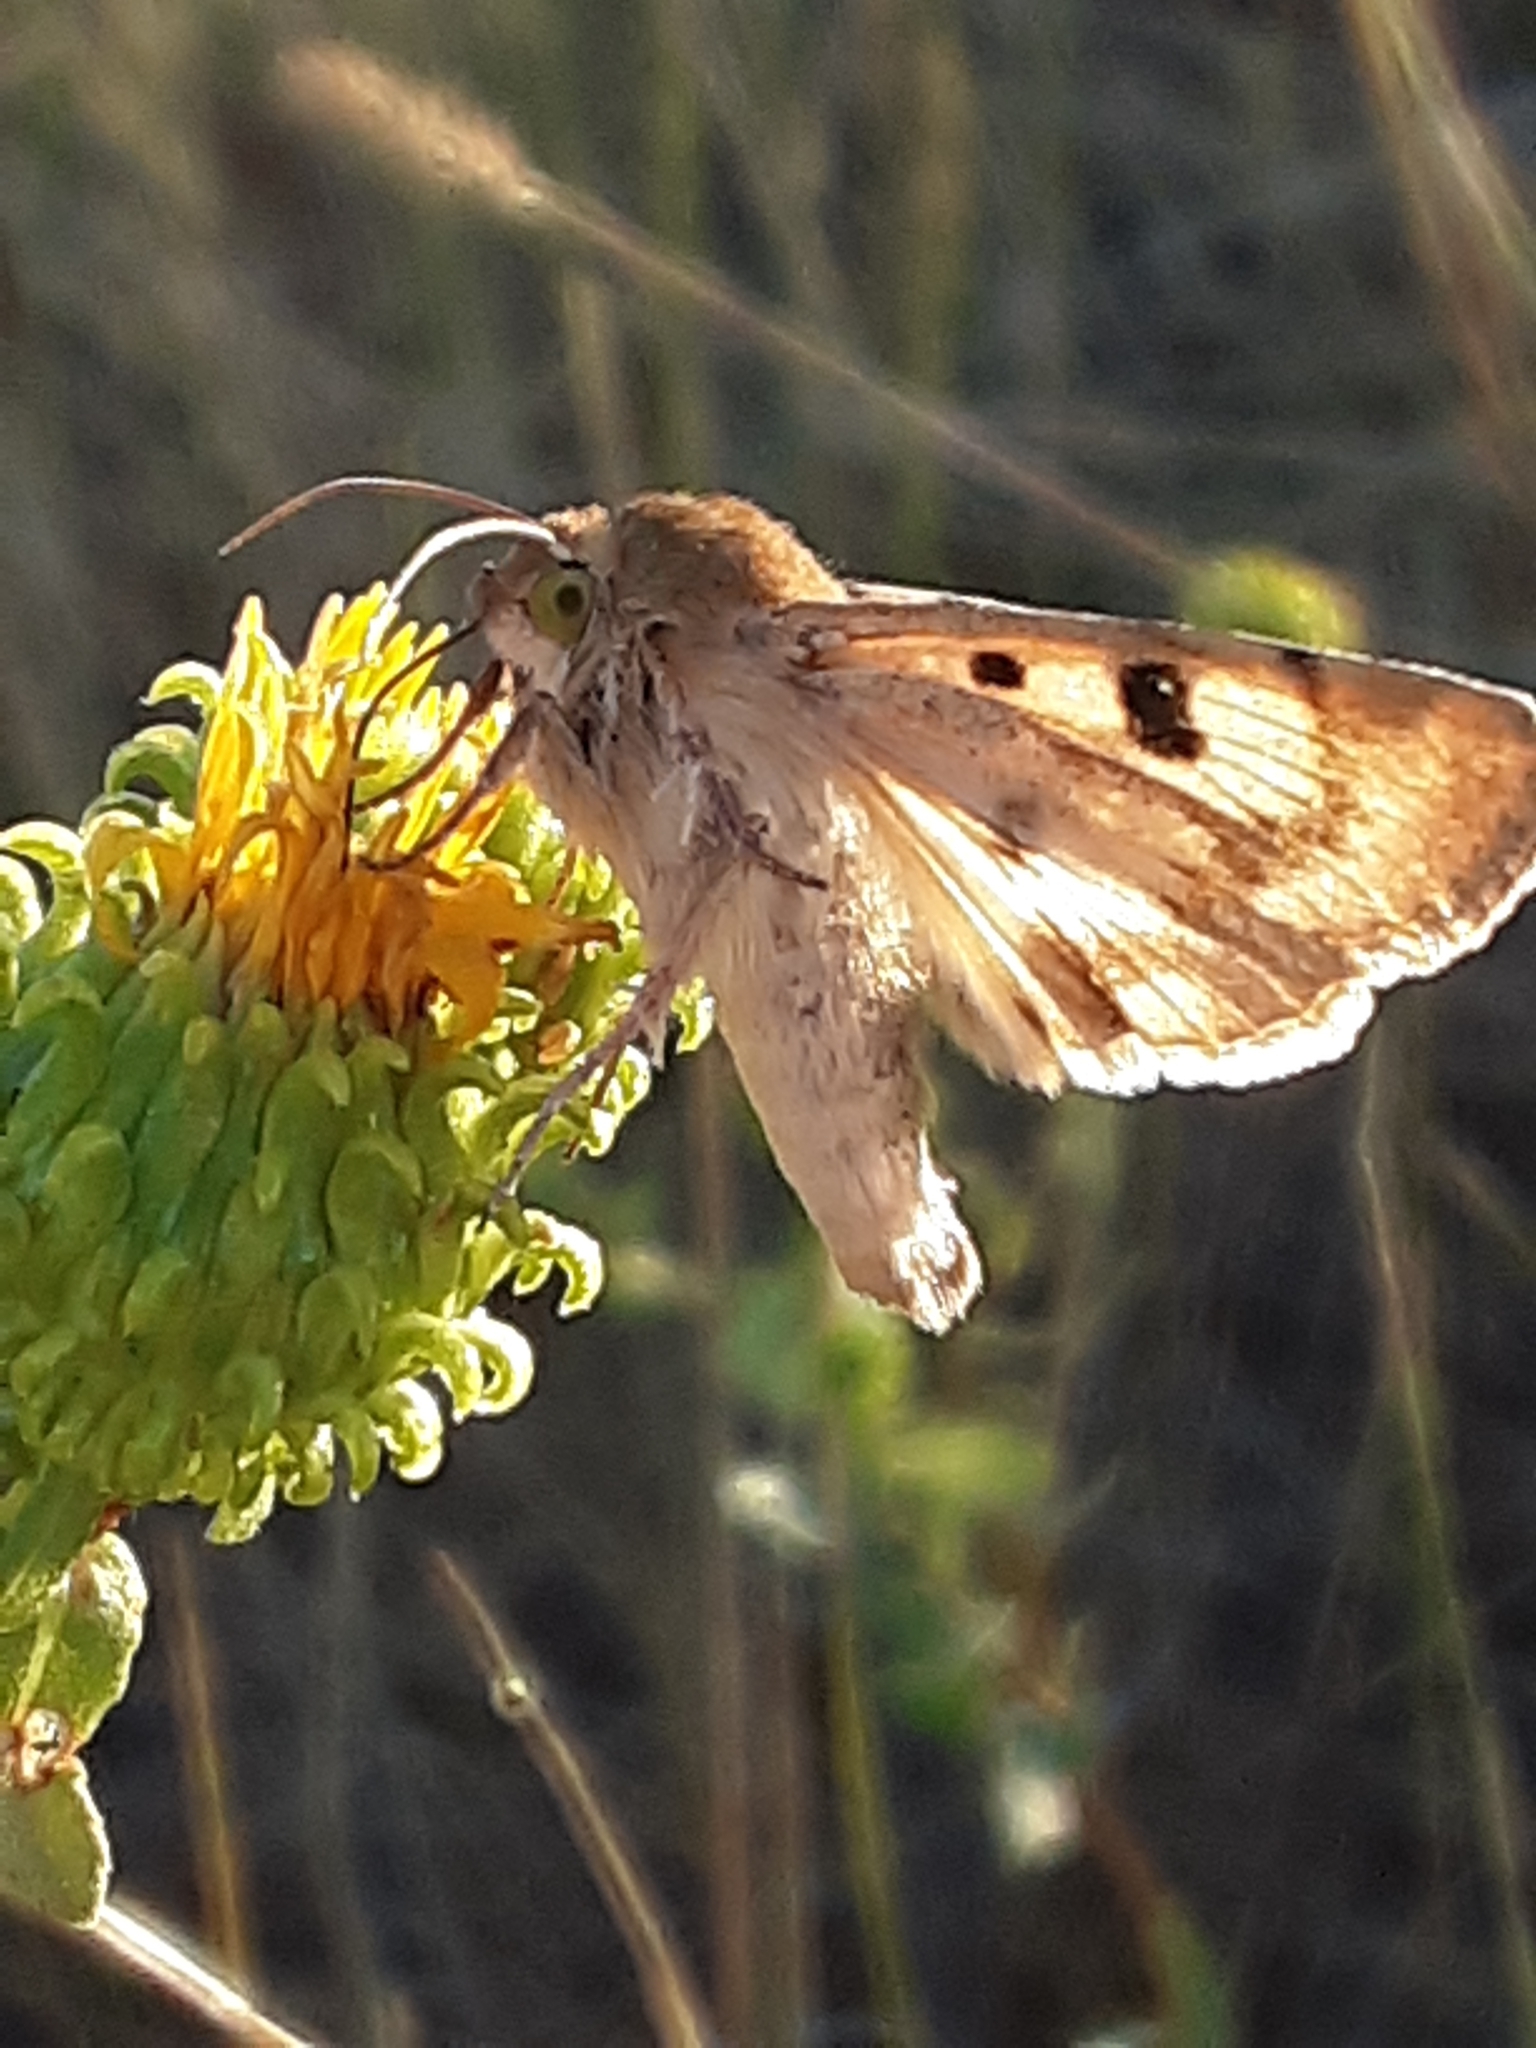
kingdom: Animalia
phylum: Arthropoda
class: Insecta
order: Lepidoptera
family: Noctuidae
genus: Heliothis
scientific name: Heliothis phloxiphaga
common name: Darker spotted straw moth
